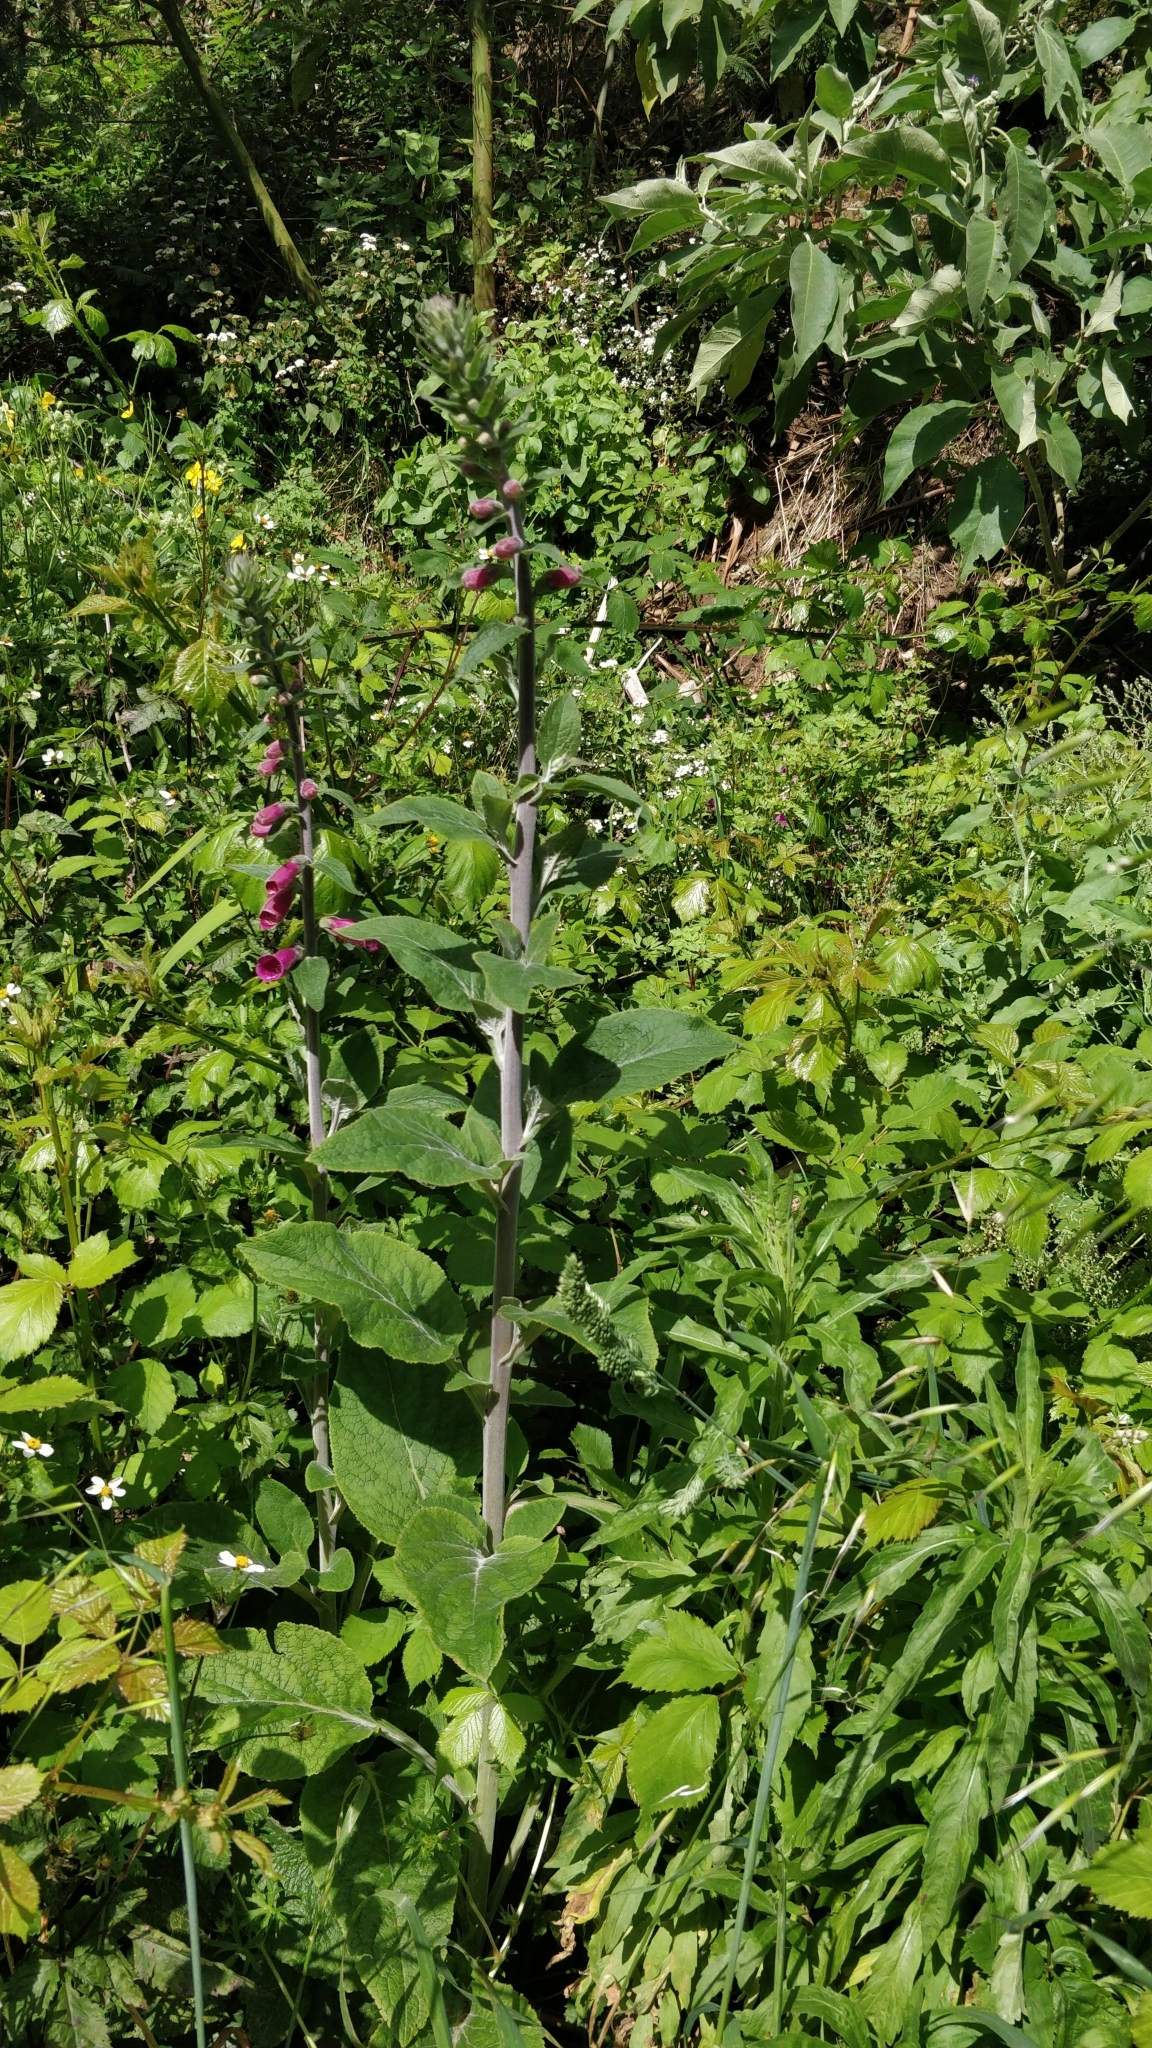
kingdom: Plantae
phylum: Tracheophyta
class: Magnoliopsida
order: Lamiales
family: Plantaginaceae
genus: Digitalis
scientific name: Digitalis purpurea
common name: Foxglove
